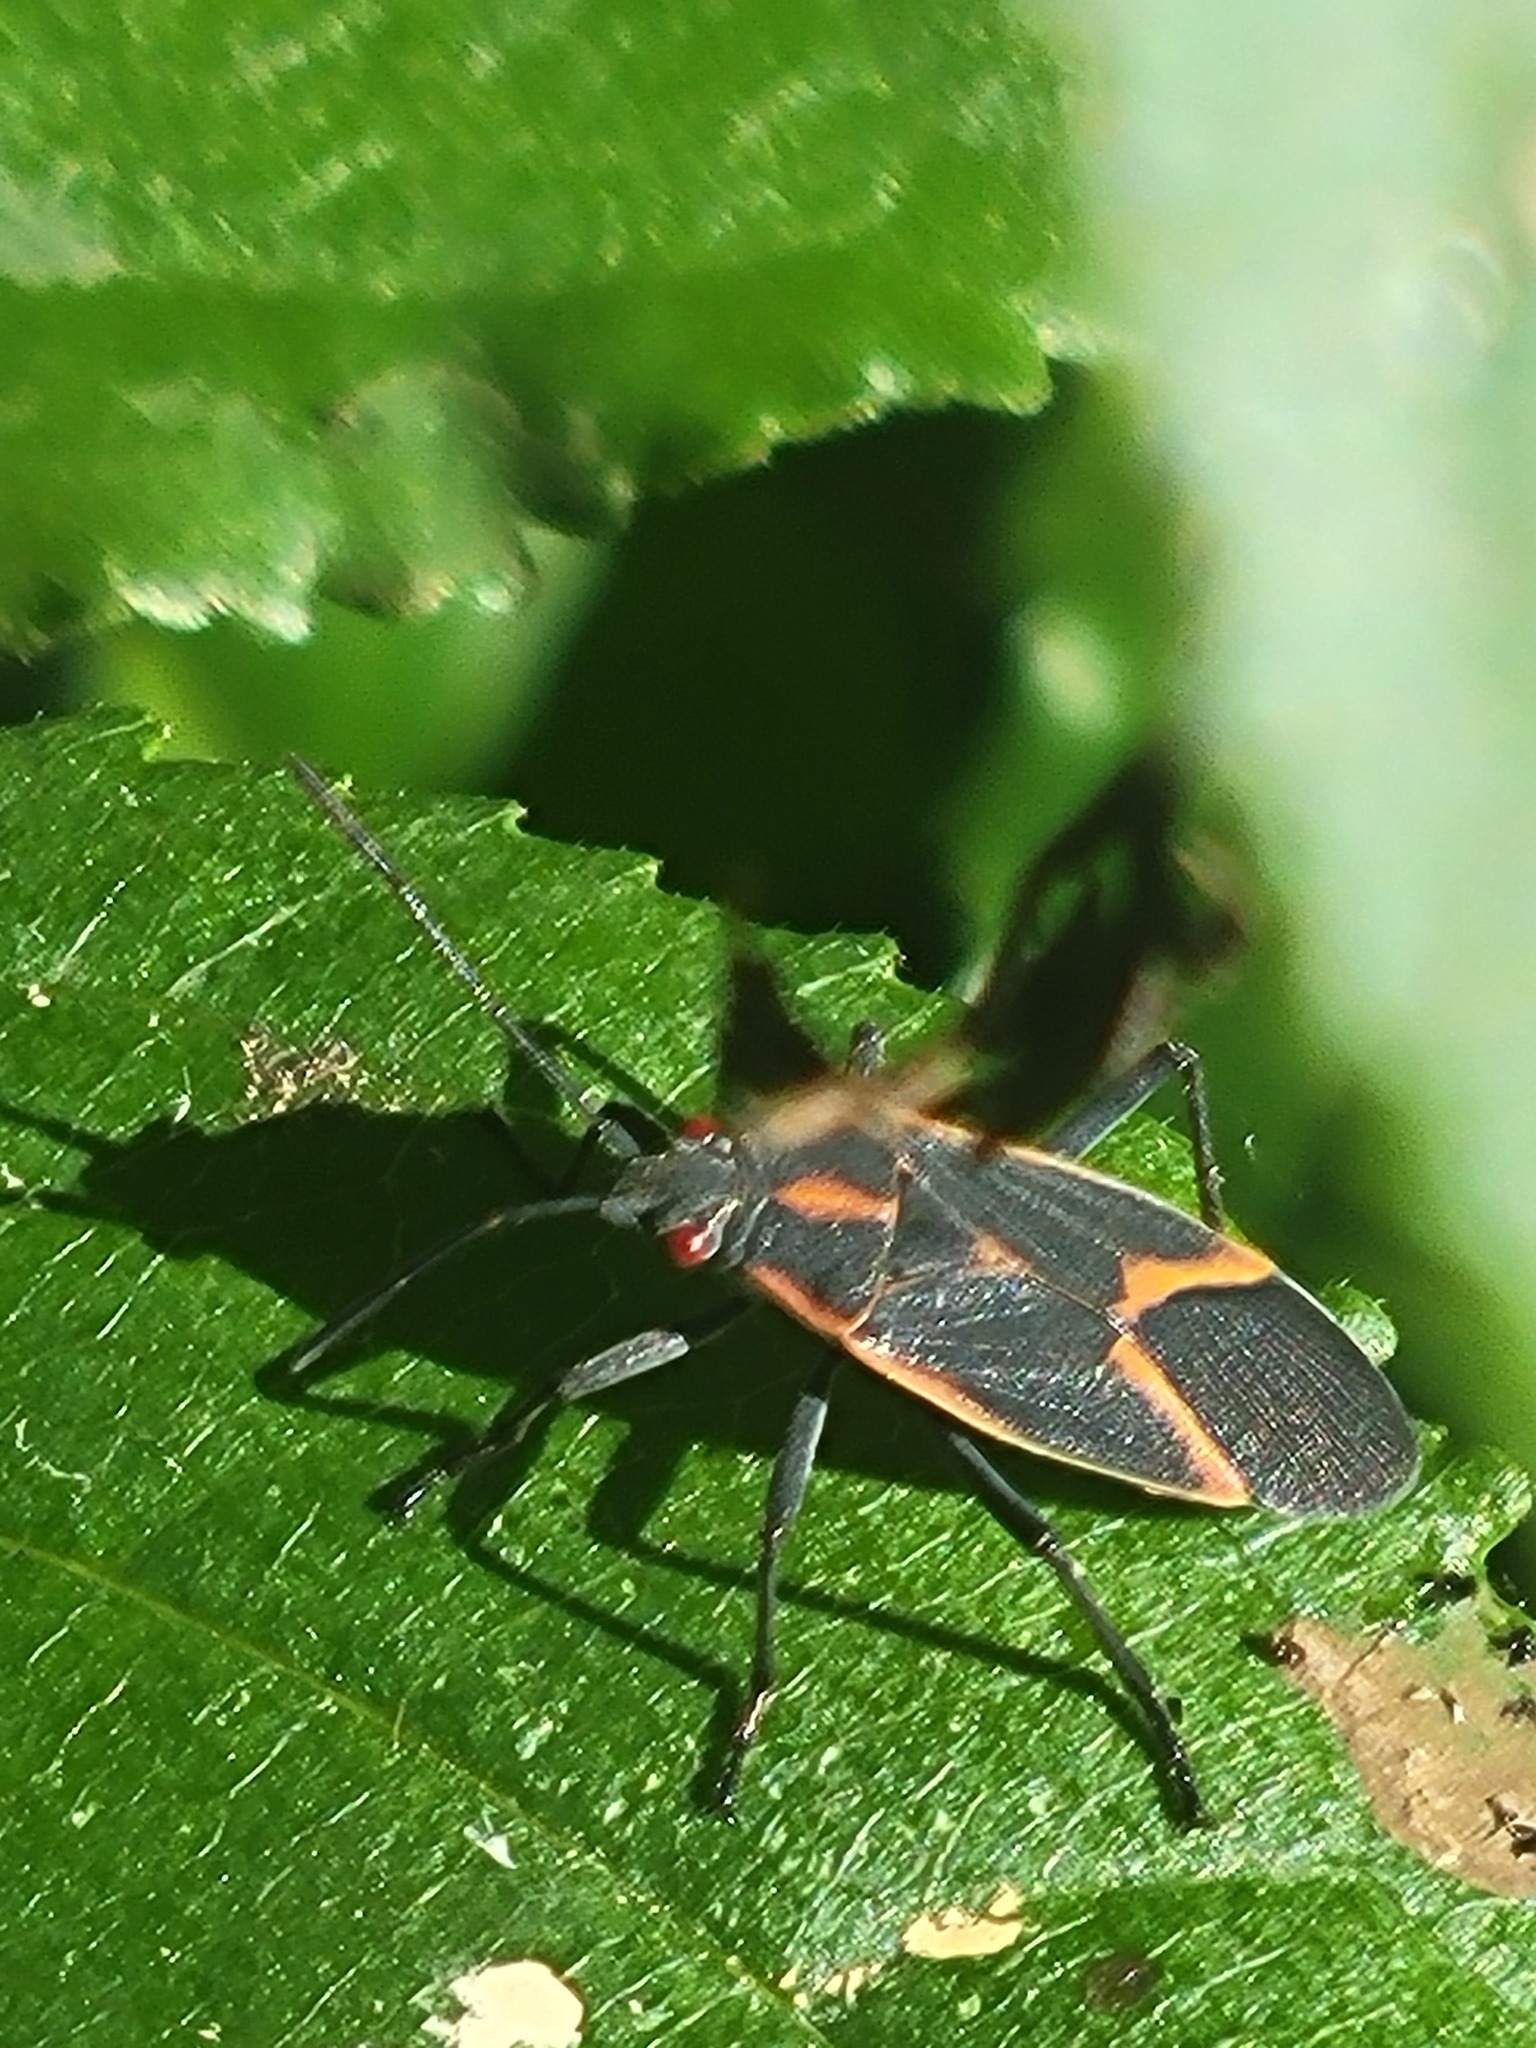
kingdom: Animalia
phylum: Arthropoda
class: Insecta
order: Hemiptera
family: Rhopalidae
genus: Boisea
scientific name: Boisea trivittata
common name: Boxelder bug
